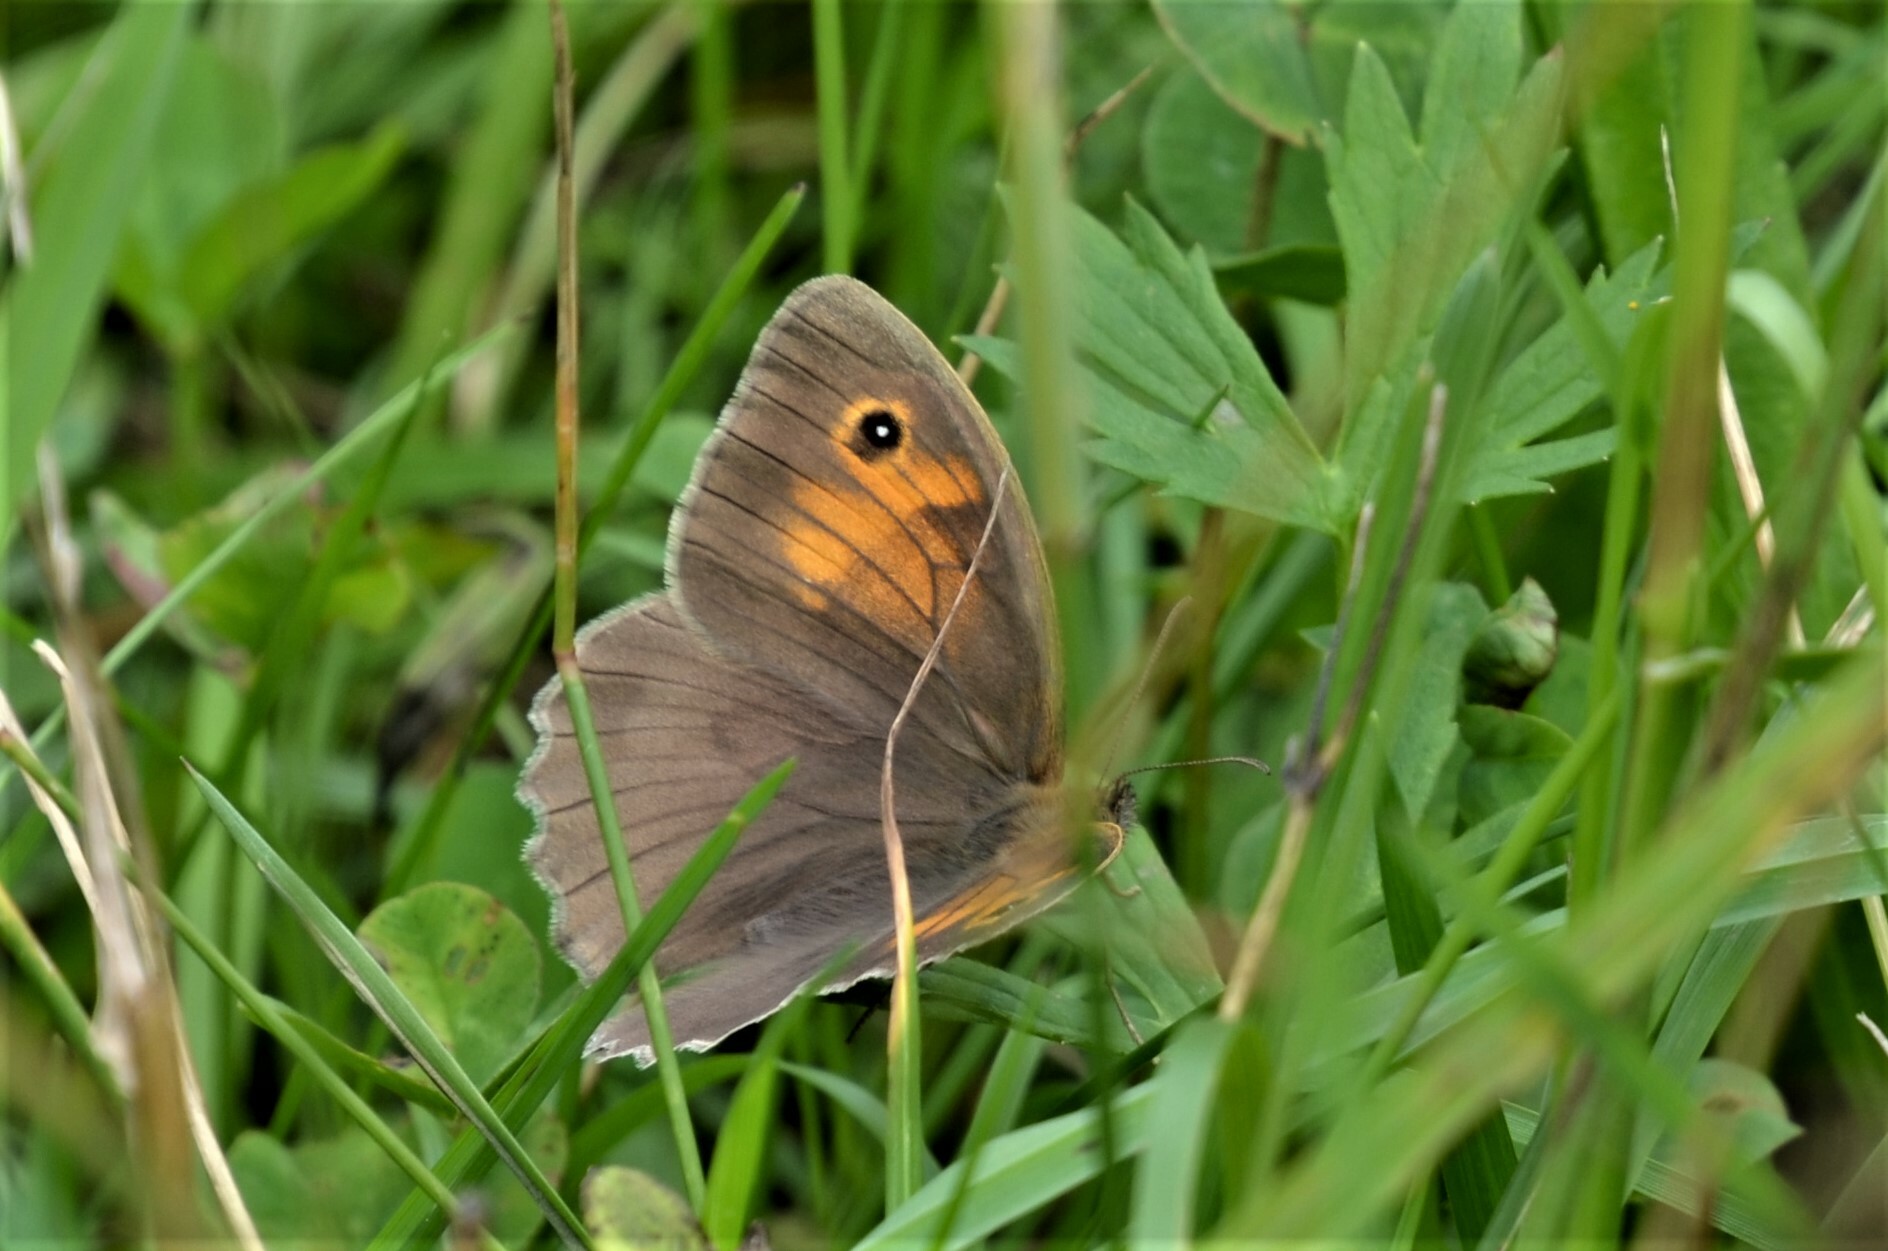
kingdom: Animalia
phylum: Arthropoda
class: Insecta
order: Lepidoptera
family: Nymphalidae
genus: Maniola
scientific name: Maniola jurtina
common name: Meadow brown
